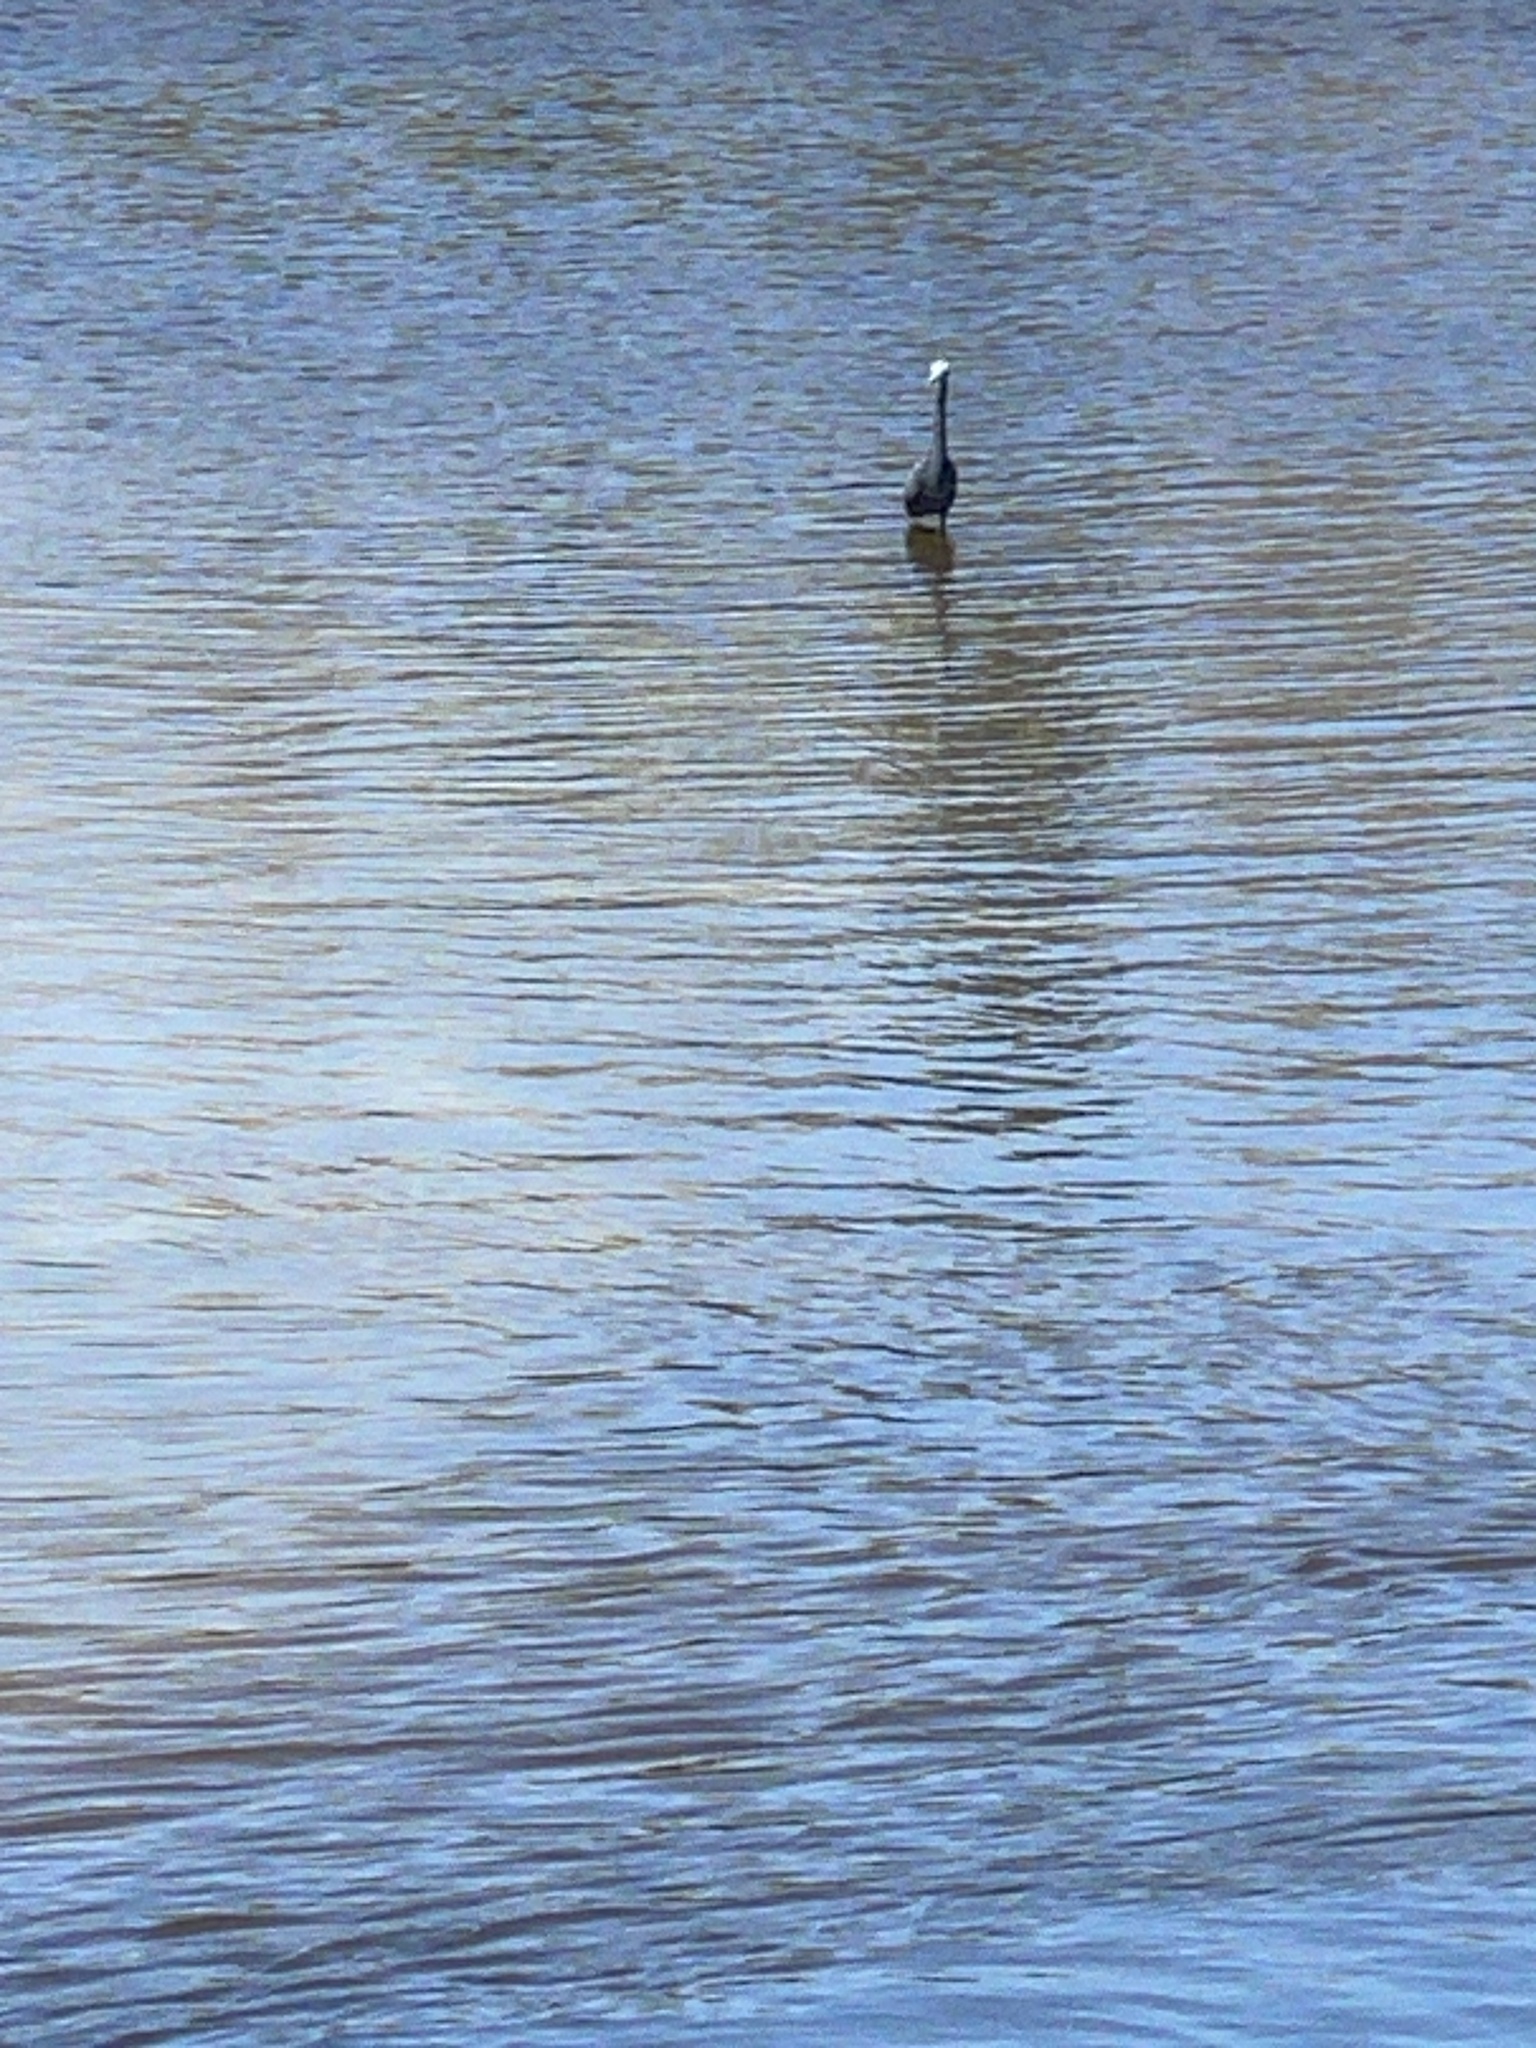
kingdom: Animalia
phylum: Chordata
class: Aves
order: Pelecaniformes
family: Ardeidae
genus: Egretta
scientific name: Egretta caerulea
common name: Little blue heron
